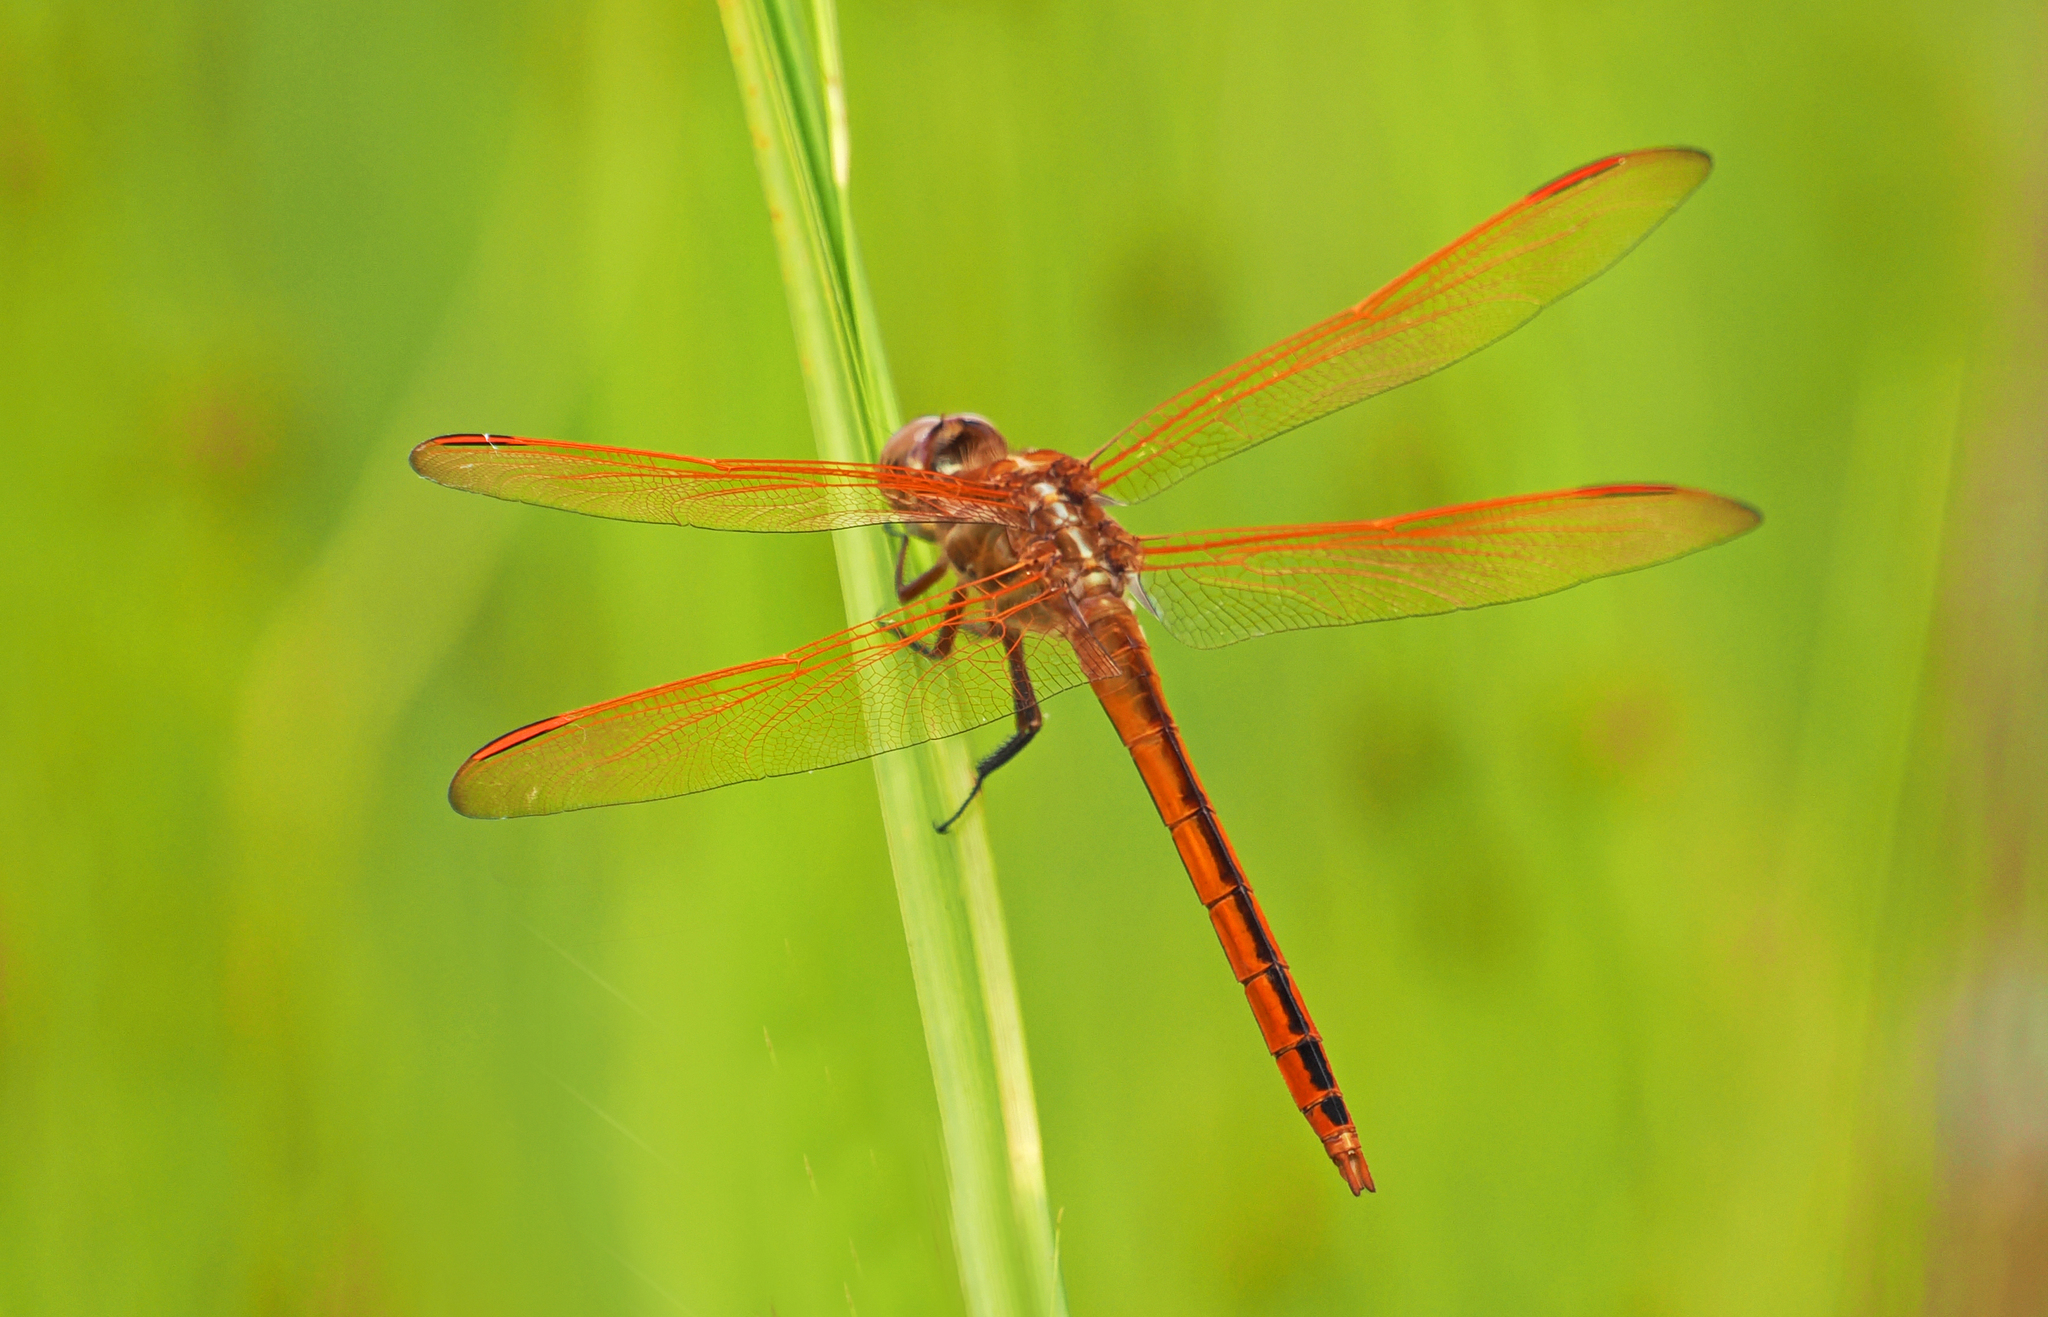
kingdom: Animalia
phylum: Arthropoda
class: Insecta
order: Odonata
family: Libellulidae
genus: Libellula
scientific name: Libellula auripennis
